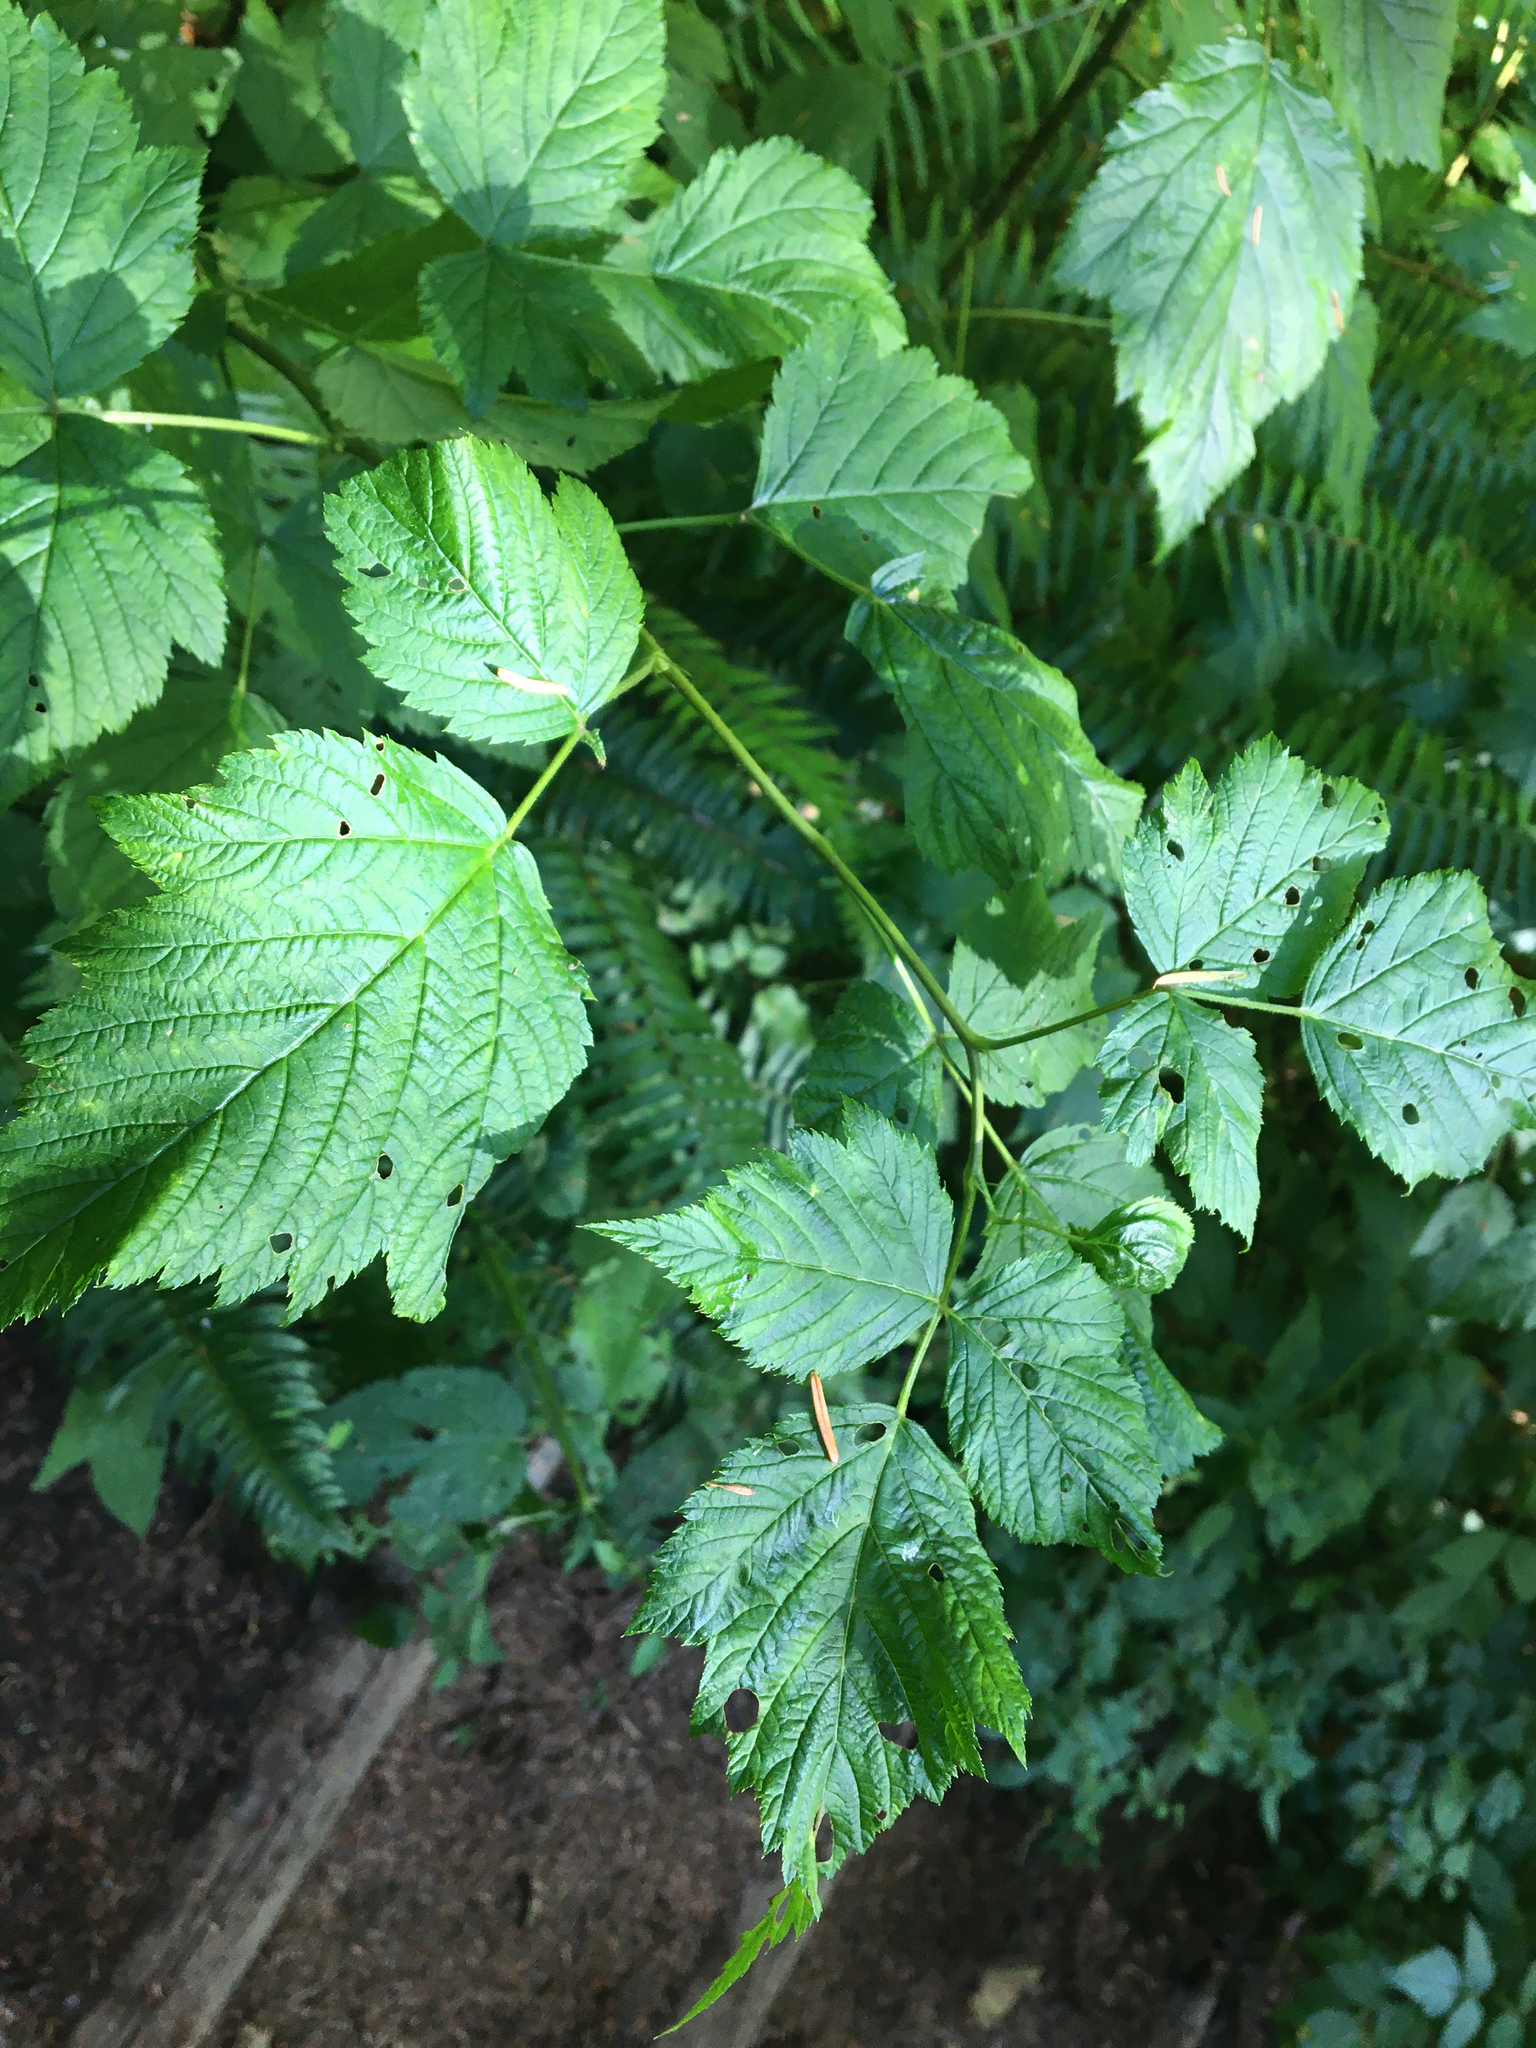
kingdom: Plantae
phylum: Tracheophyta
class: Magnoliopsida
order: Rosales
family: Rosaceae
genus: Rubus
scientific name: Rubus spectabilis
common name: Salmonberry
